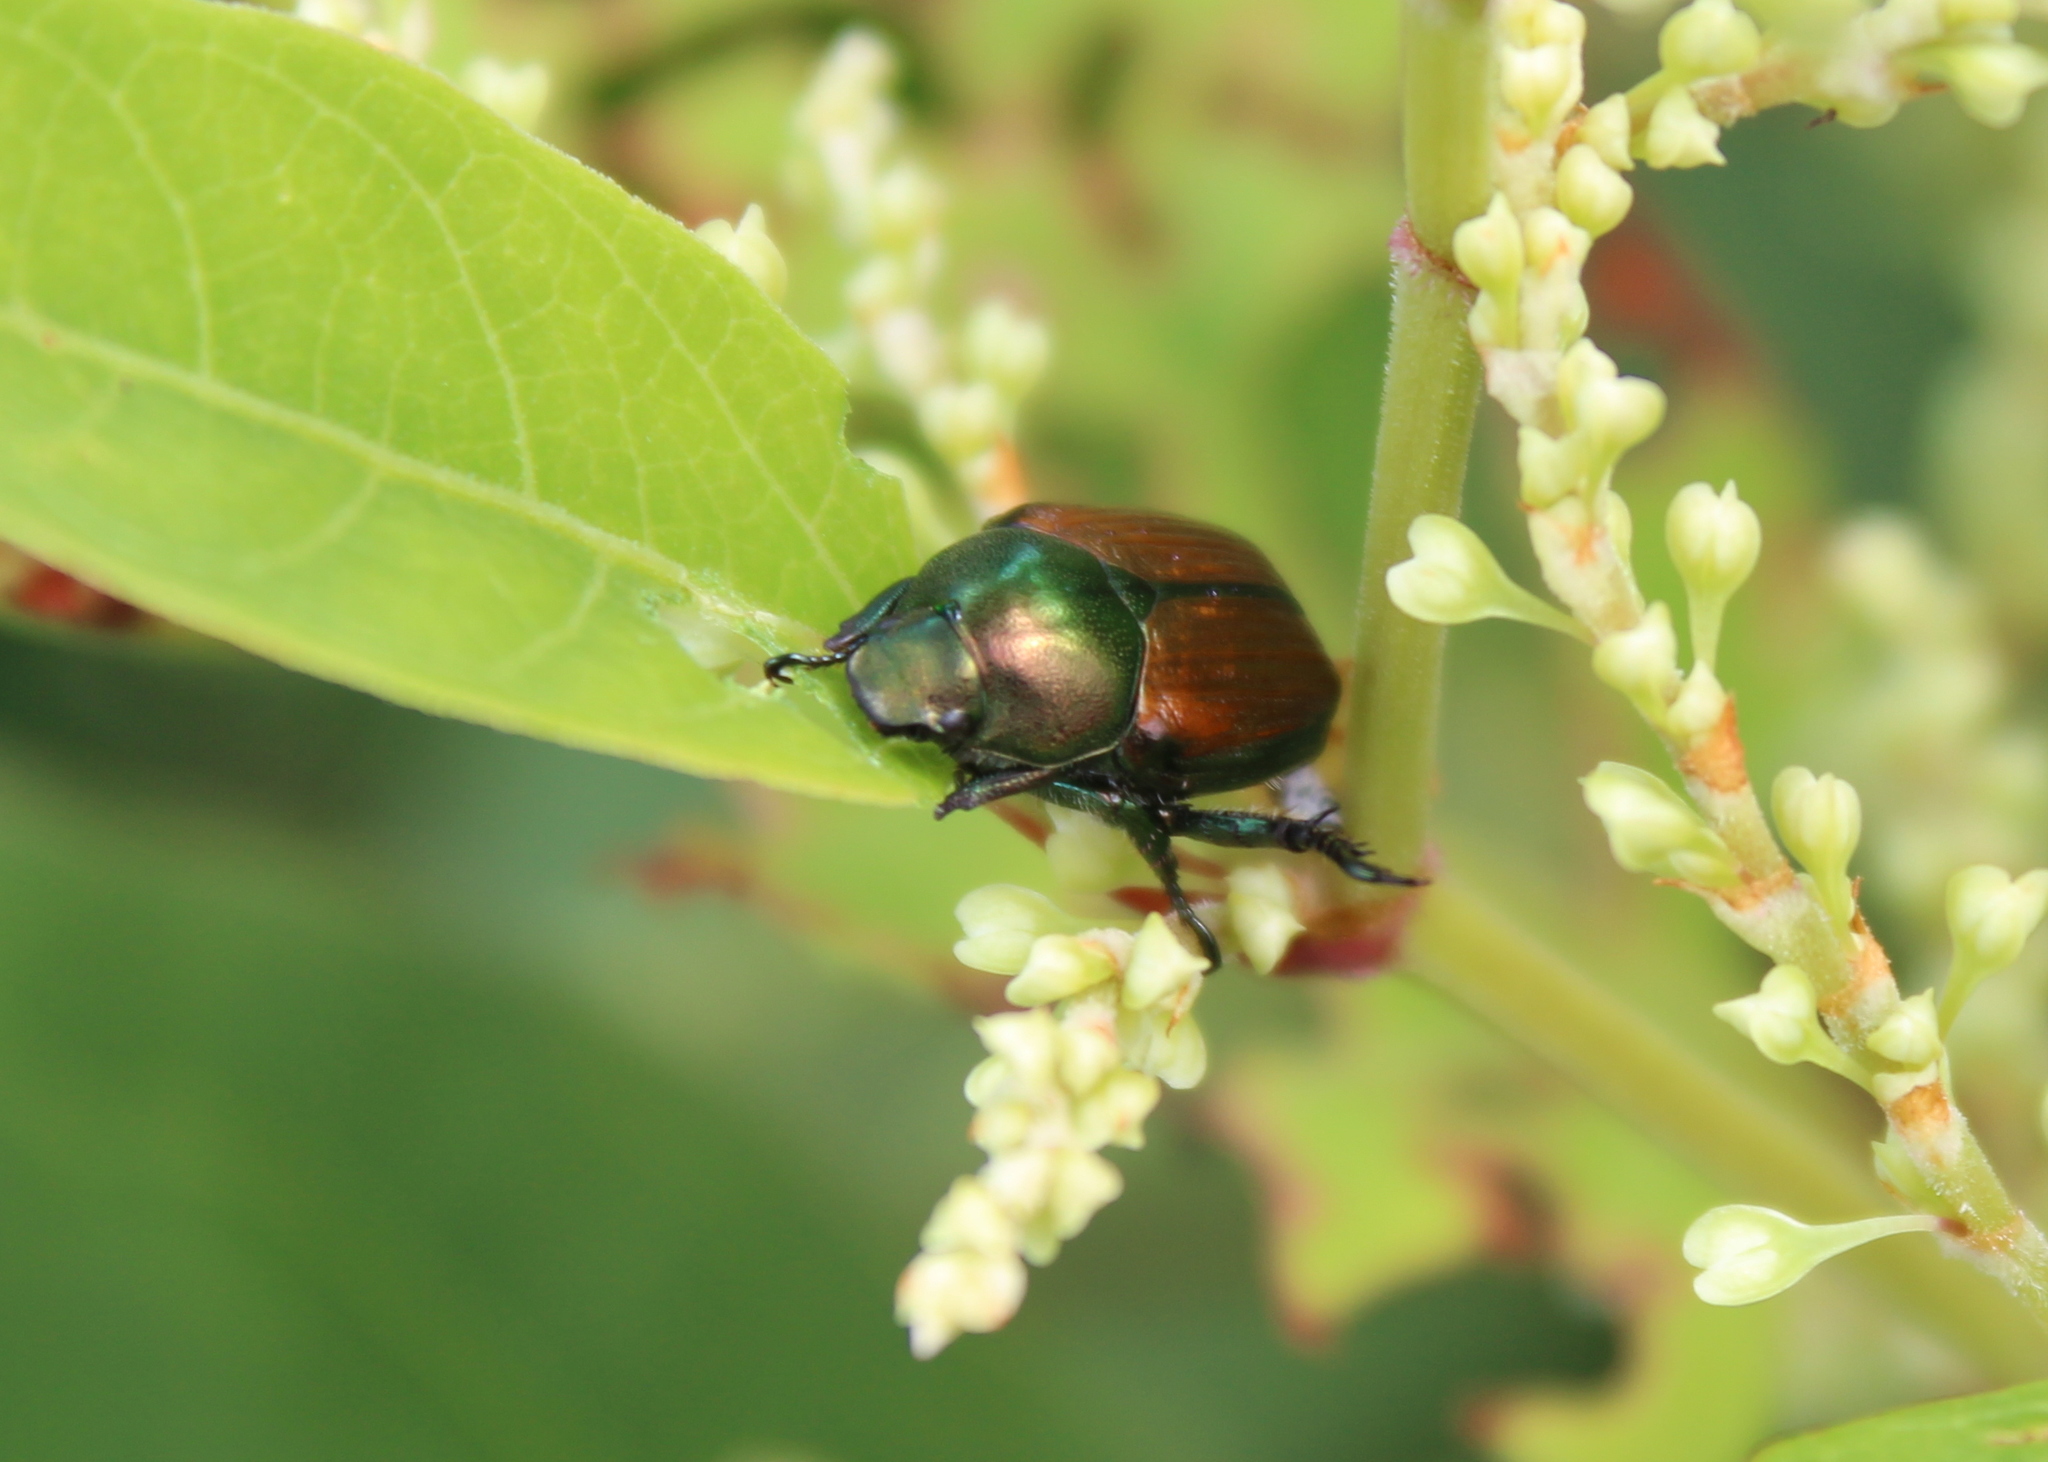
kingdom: Animalia
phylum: Arthropoda
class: Insecta
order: Coleoptera
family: Scarabaeidae
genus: Popillia
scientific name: Popillia japonica
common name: Japanese beetle
